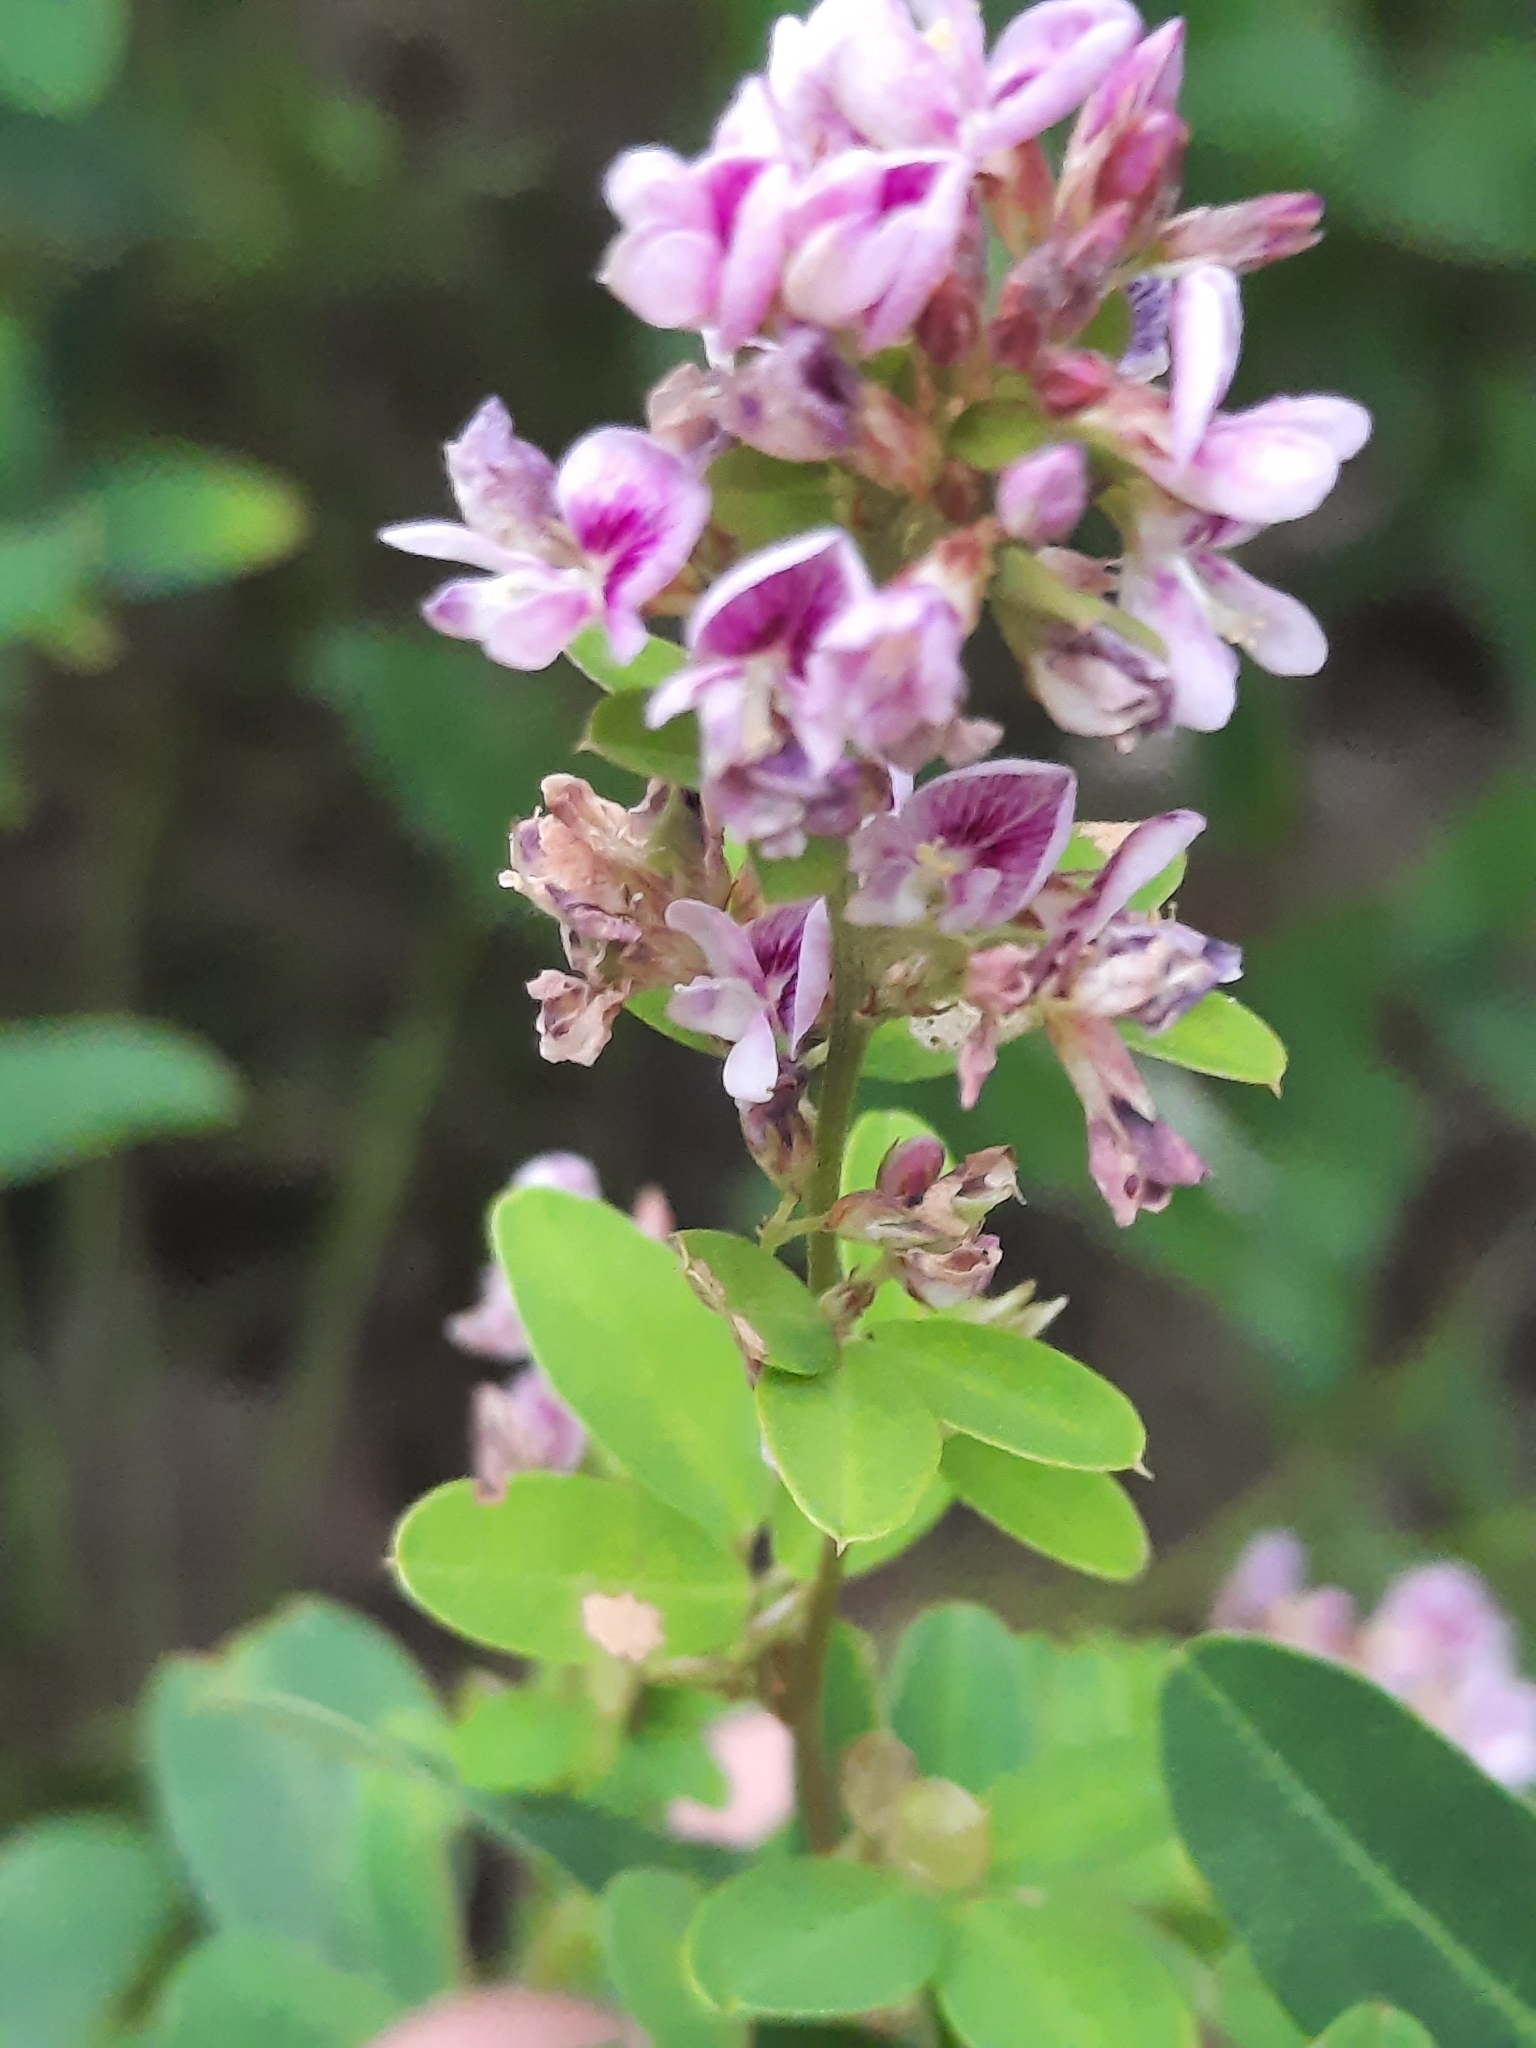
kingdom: Plantae
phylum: Tracheophyta
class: Magnoliopsida
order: Fabales
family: Fabaceae
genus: Lespedeza
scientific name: Lespedeza violacea
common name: Wand bush-clover
